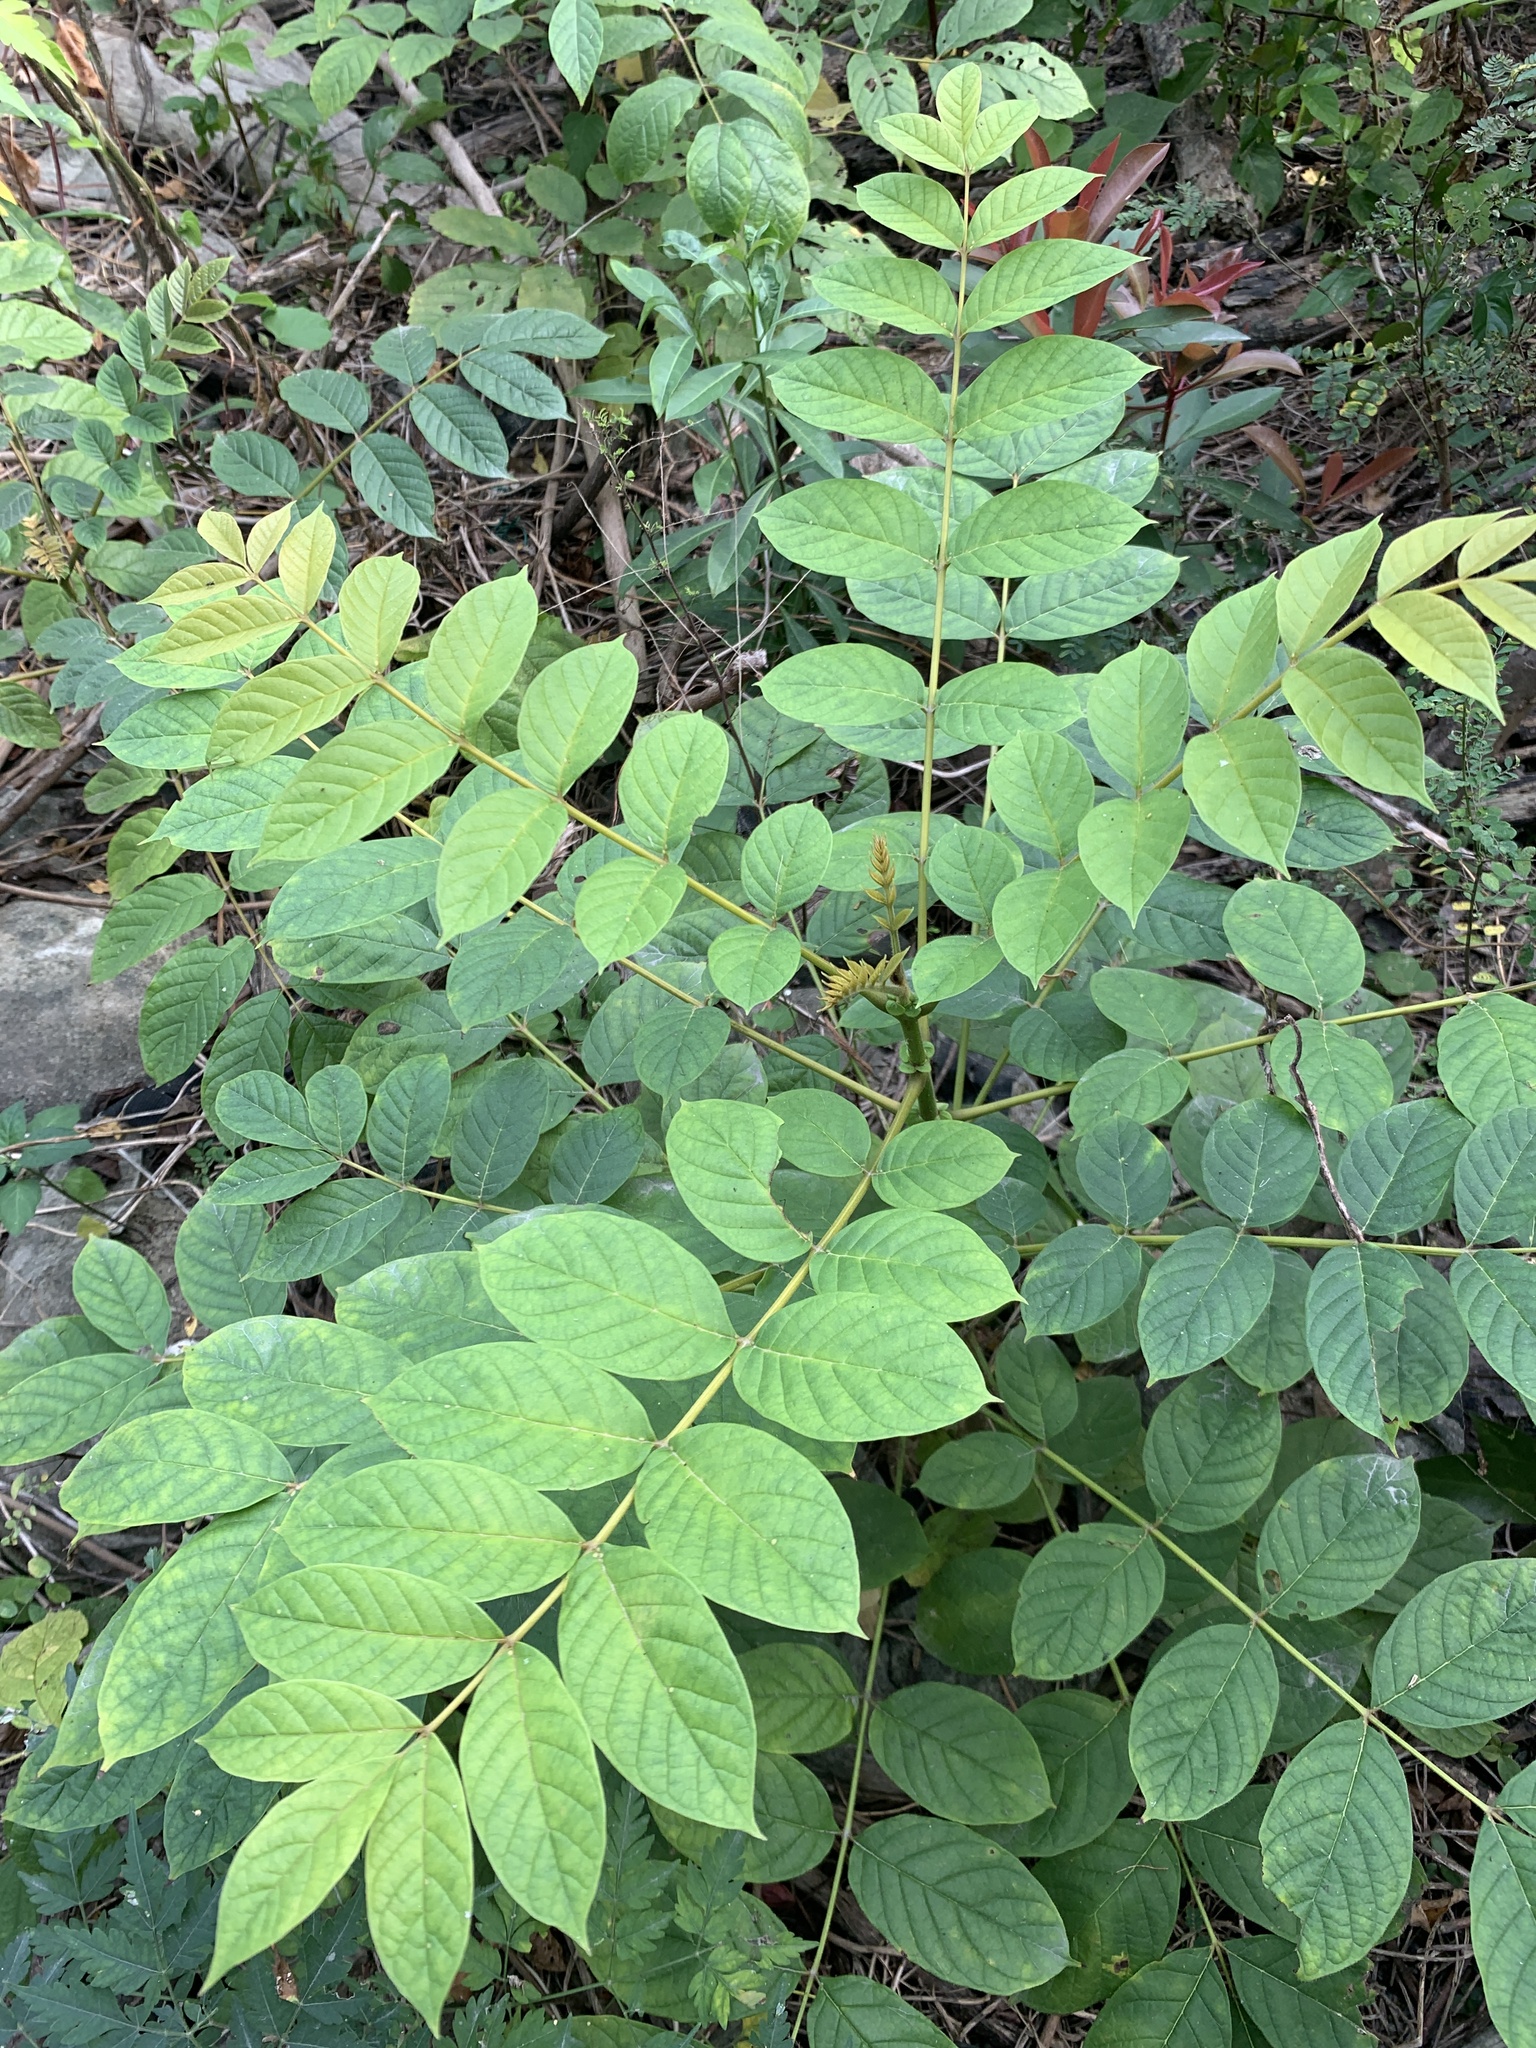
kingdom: Plantae
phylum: Tracheophyta
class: Magnoliopsida
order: Lamiales
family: Bignoniaceae
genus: Spathodea
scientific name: Spathodea campanulata
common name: African tuliptree
